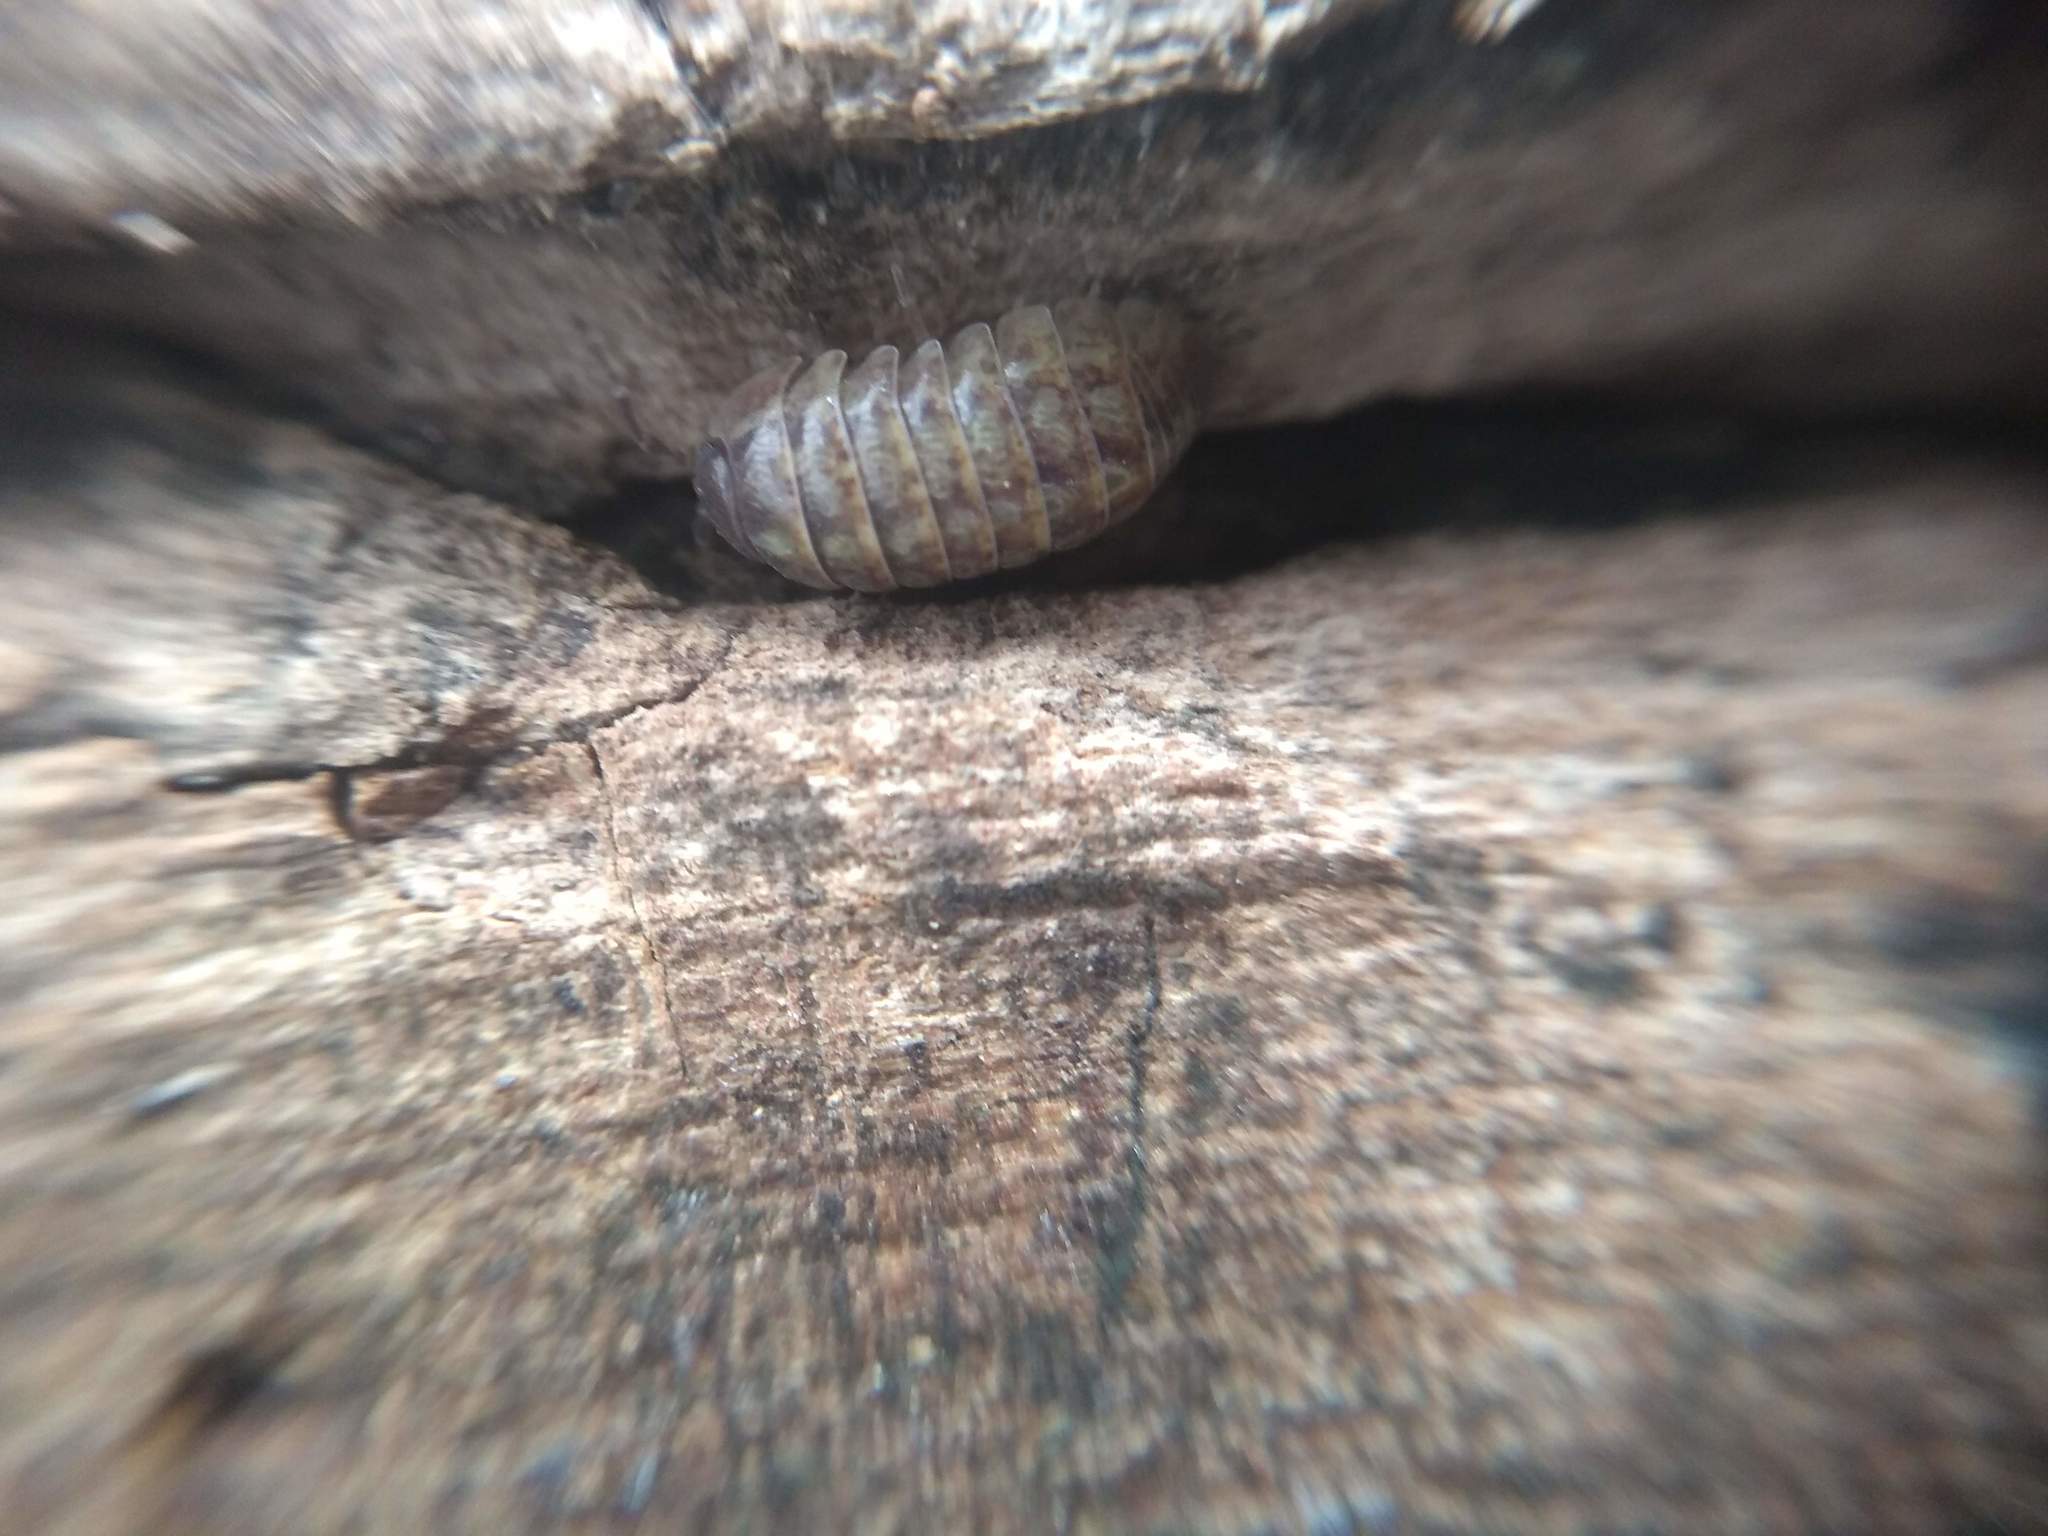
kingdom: Animalia
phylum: Arthropoda
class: Malacostraca
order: Isopoda
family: Armadillidiidae
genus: Armadillidium
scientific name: Armadillidium vulgare
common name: Common pill woodlouse
